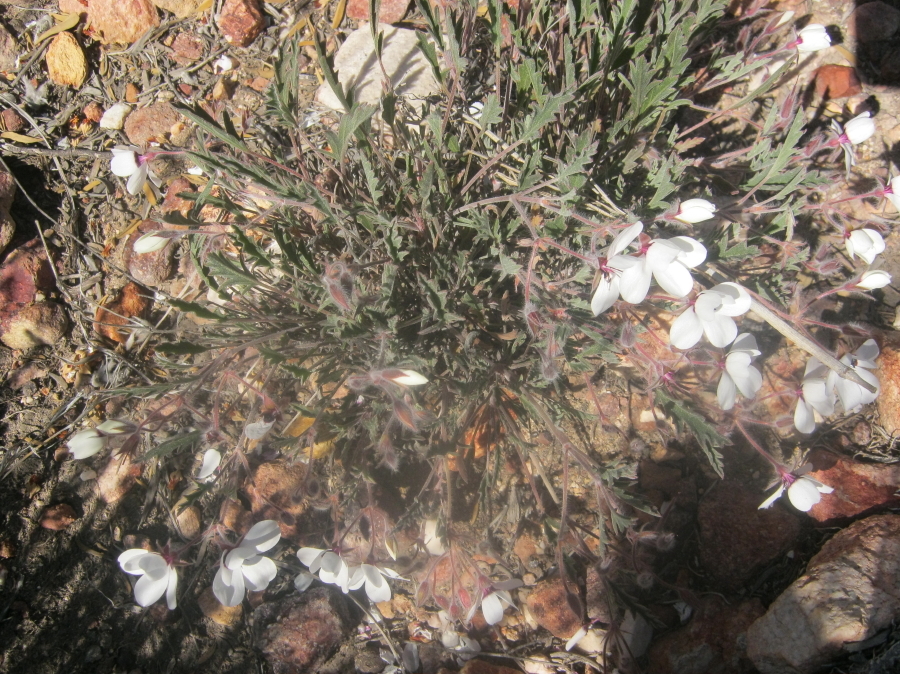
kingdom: Plantae
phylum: Tracheophyta
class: Magnoliopsida
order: Geraniales
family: Geraniaceae
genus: Pelargonium
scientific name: Pelargonium tricolor
